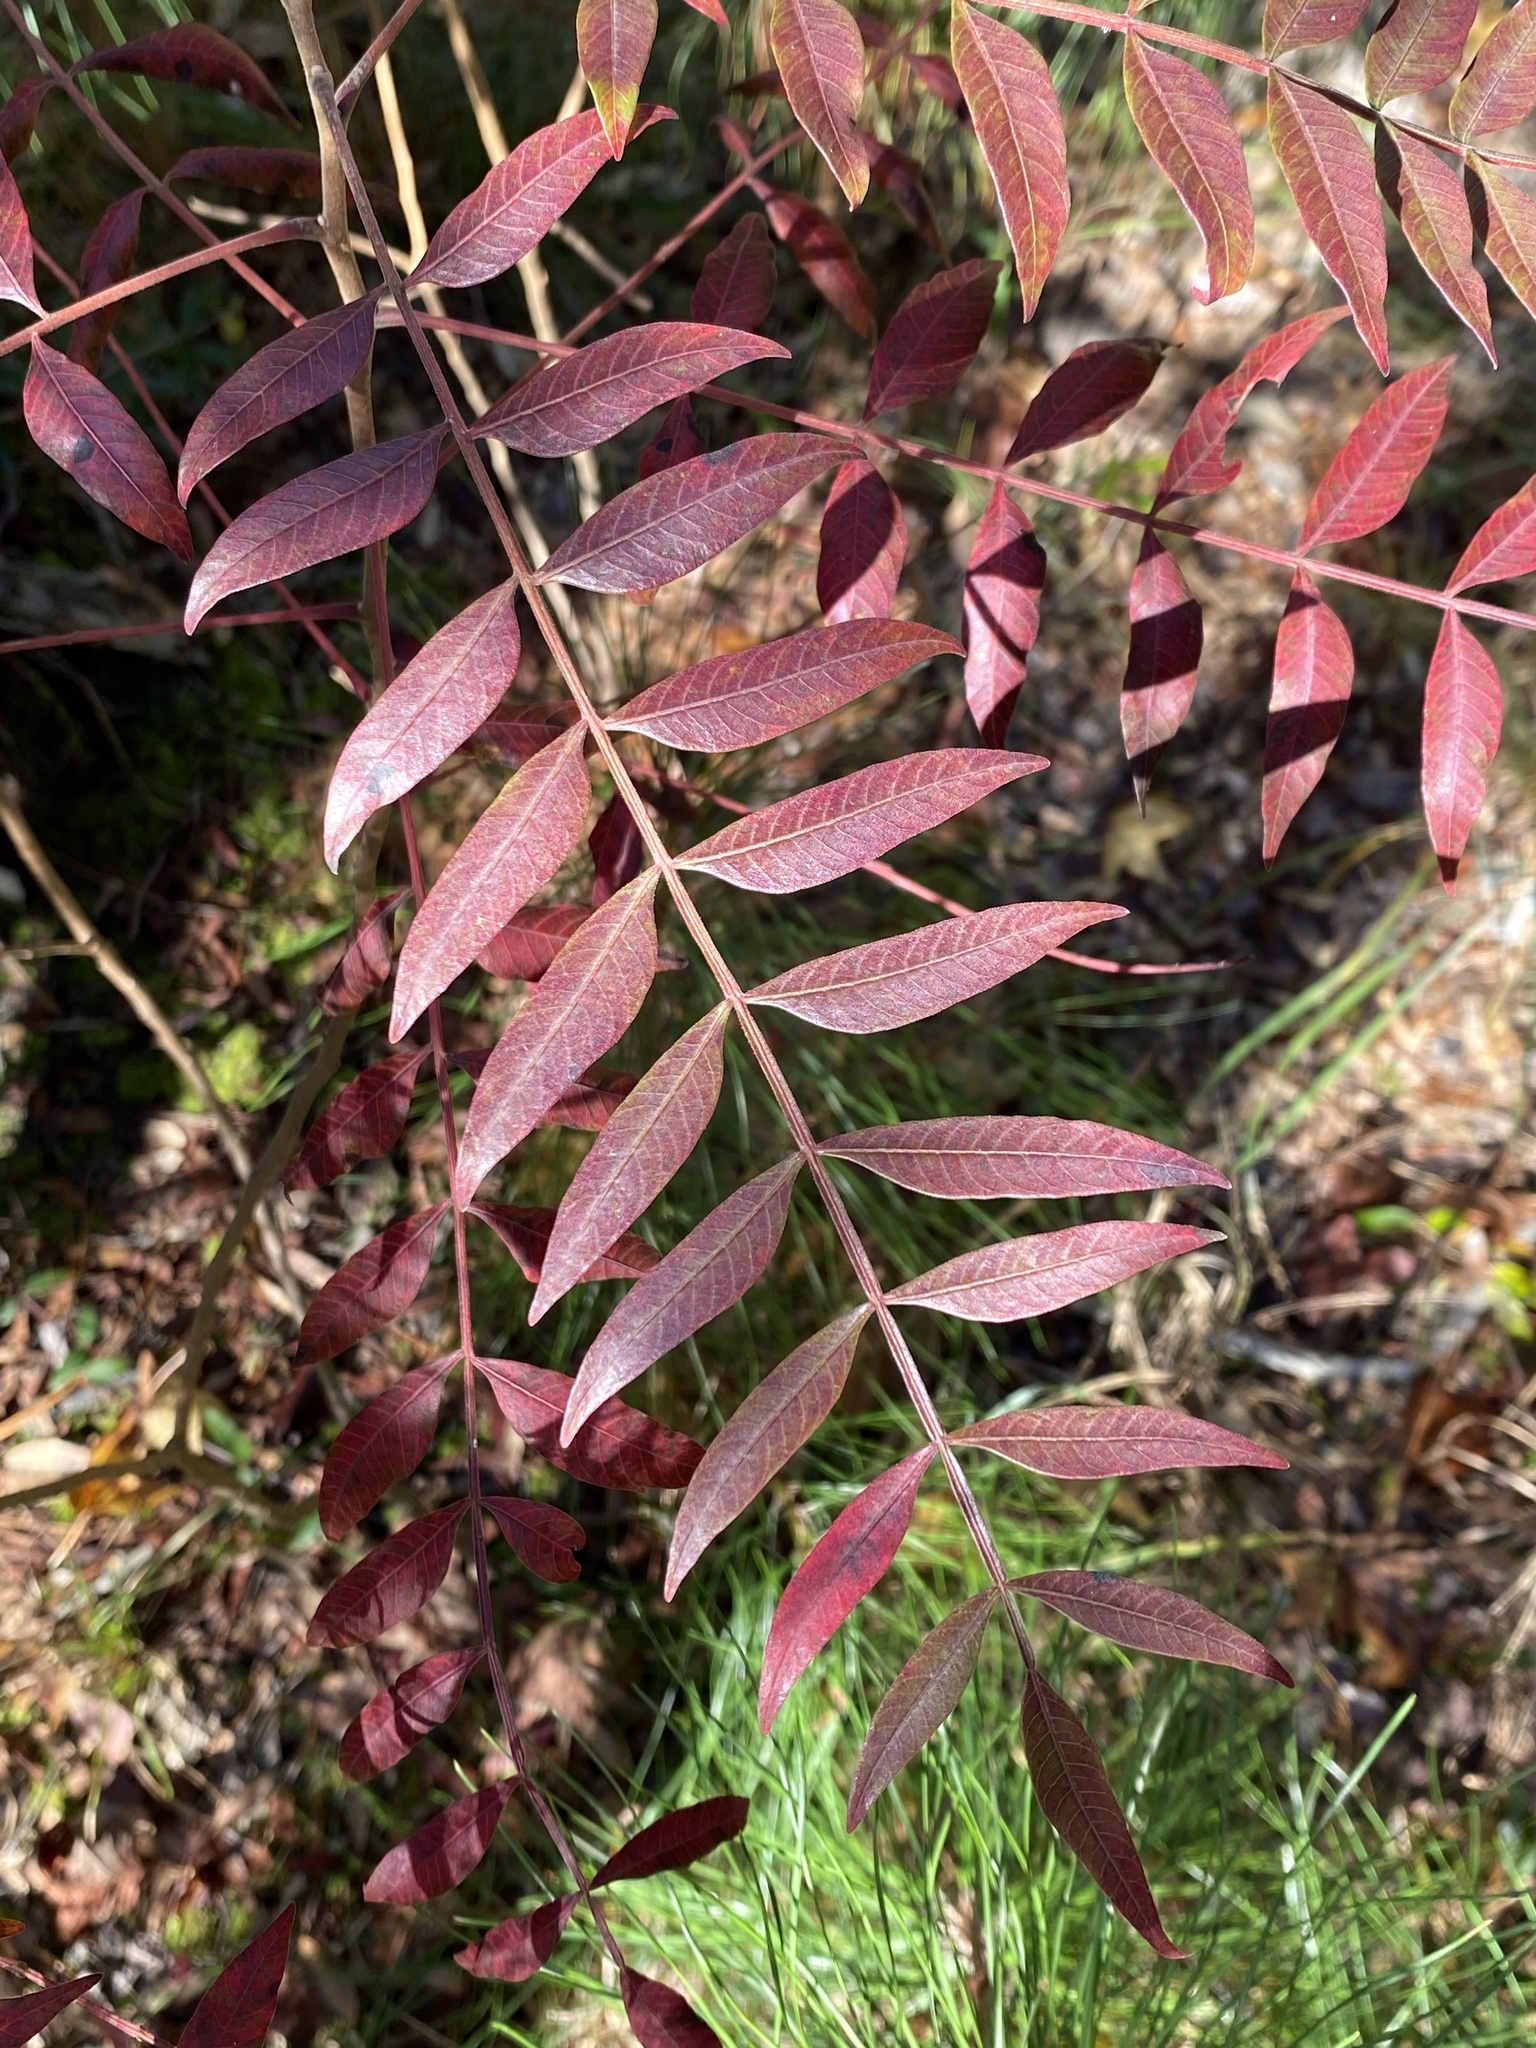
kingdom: Plantae
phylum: Tracheophyta
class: Magnoliopsida
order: Sapindales
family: Anacardiaceae
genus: Rhus
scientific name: Rhus copallina
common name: Shining sumac
